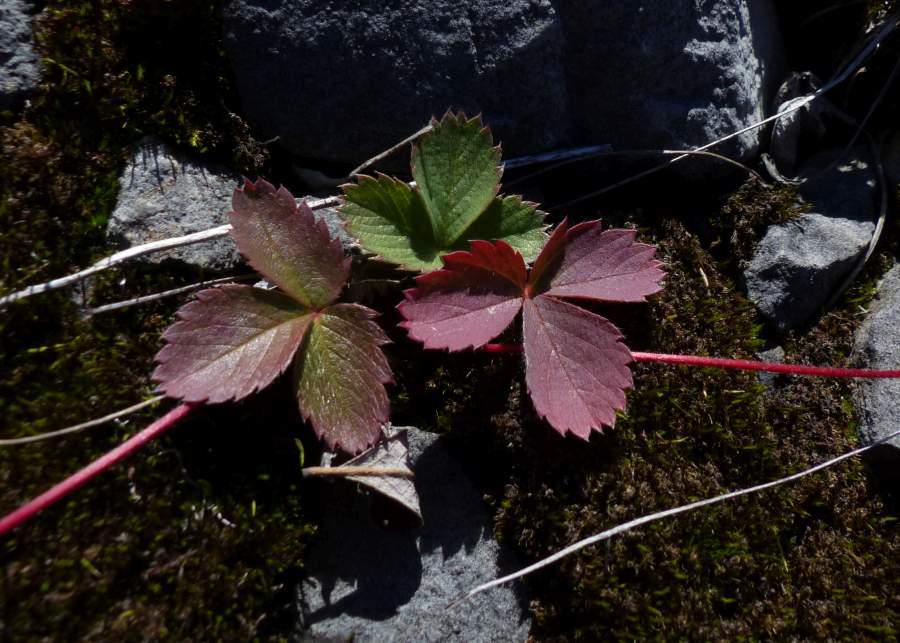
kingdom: Plantae
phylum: Tracheophyta
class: Magnoliopsida
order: Rosales
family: Rosaceae
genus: Fragaria
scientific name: Fragaria virginiana
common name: Thickleaved wild strawberry
